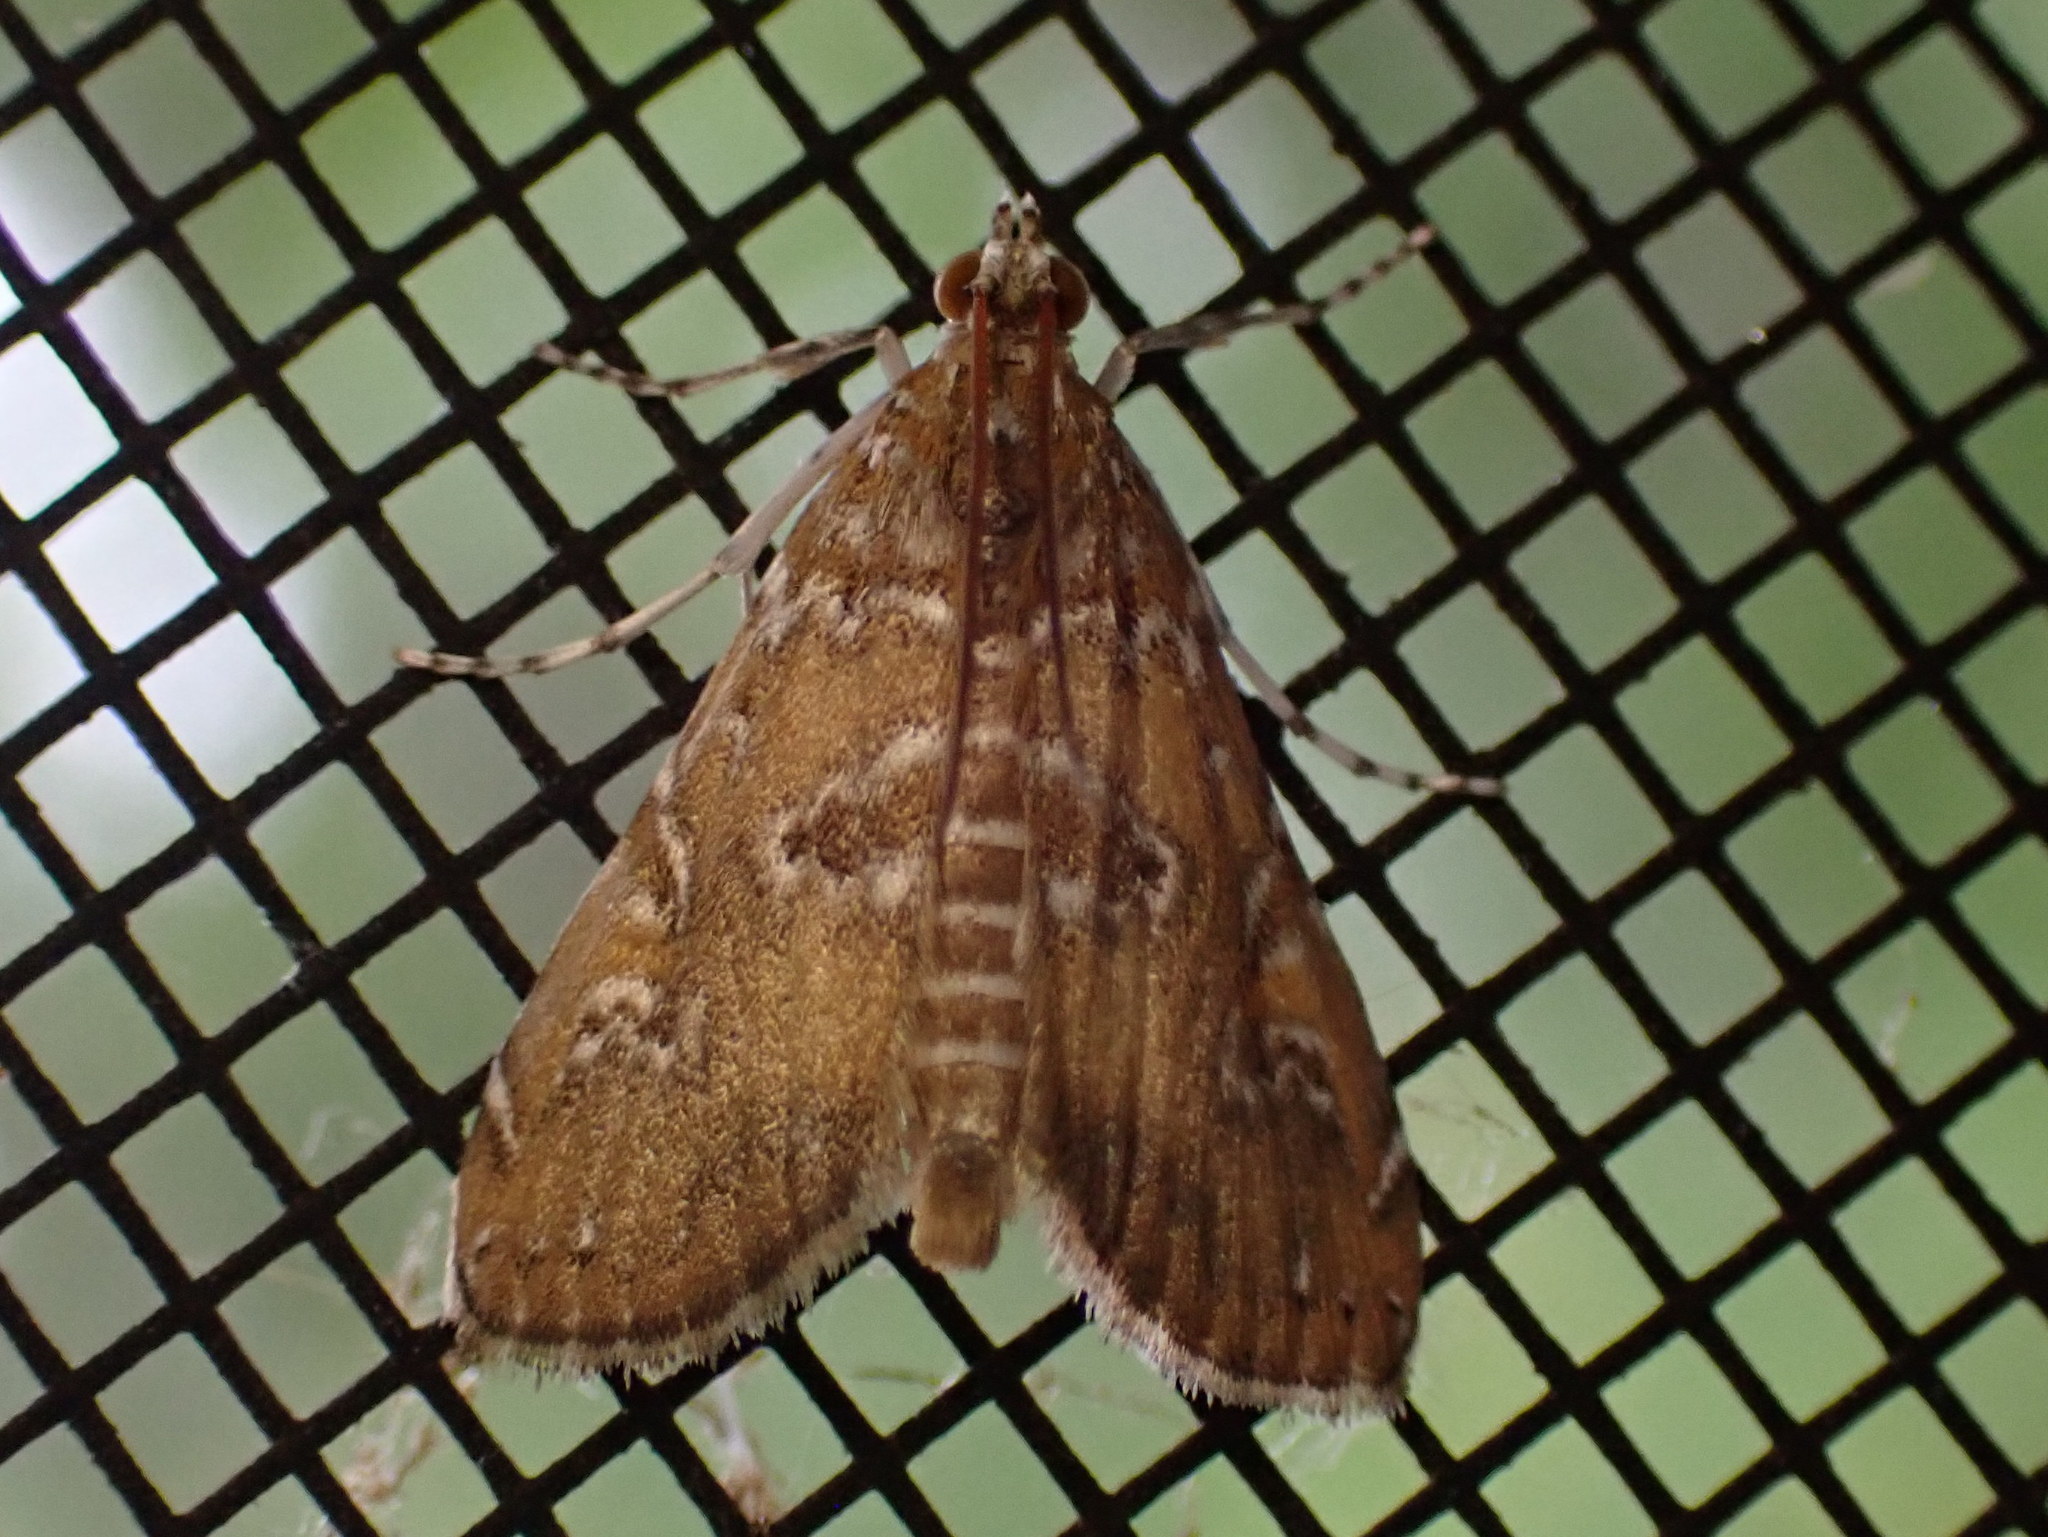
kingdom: Animalia
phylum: Arthropoda
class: Insecta
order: Lepidoptera
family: Crambidae
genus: Elophila
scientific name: Elophila gyralis
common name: Waterlily borer moth
